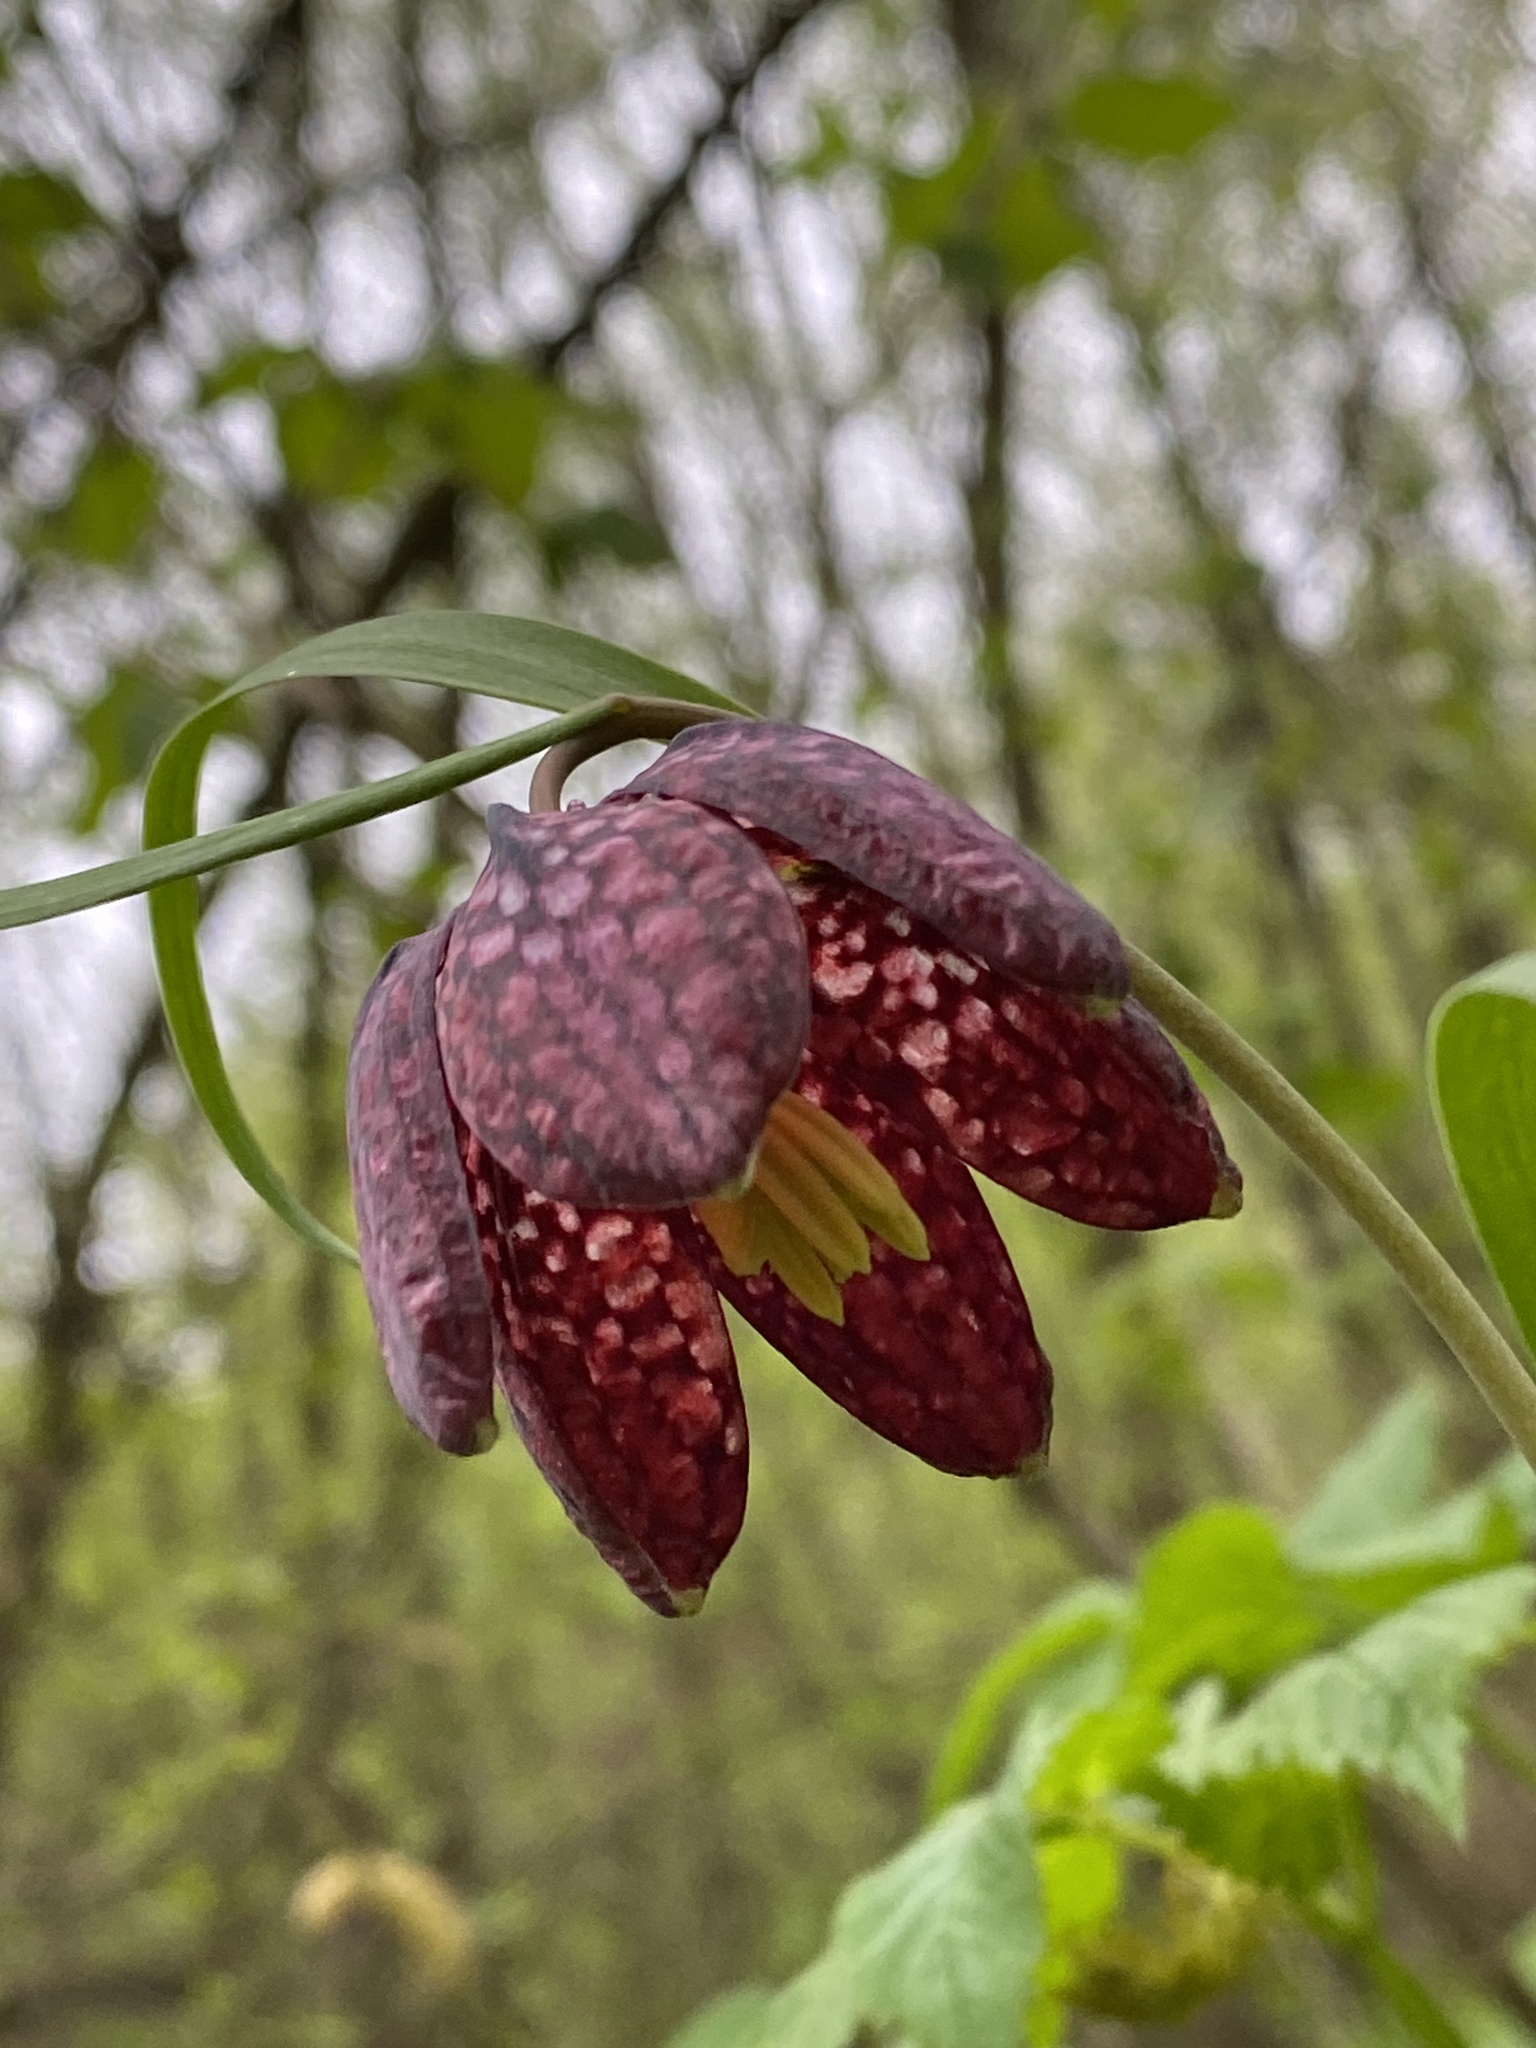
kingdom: Plantae
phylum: Tracheophyta
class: Liliopsida
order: Liliales
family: Liliaceae
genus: Fritillaria
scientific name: Fritillaria meleagris
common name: Fritillary
